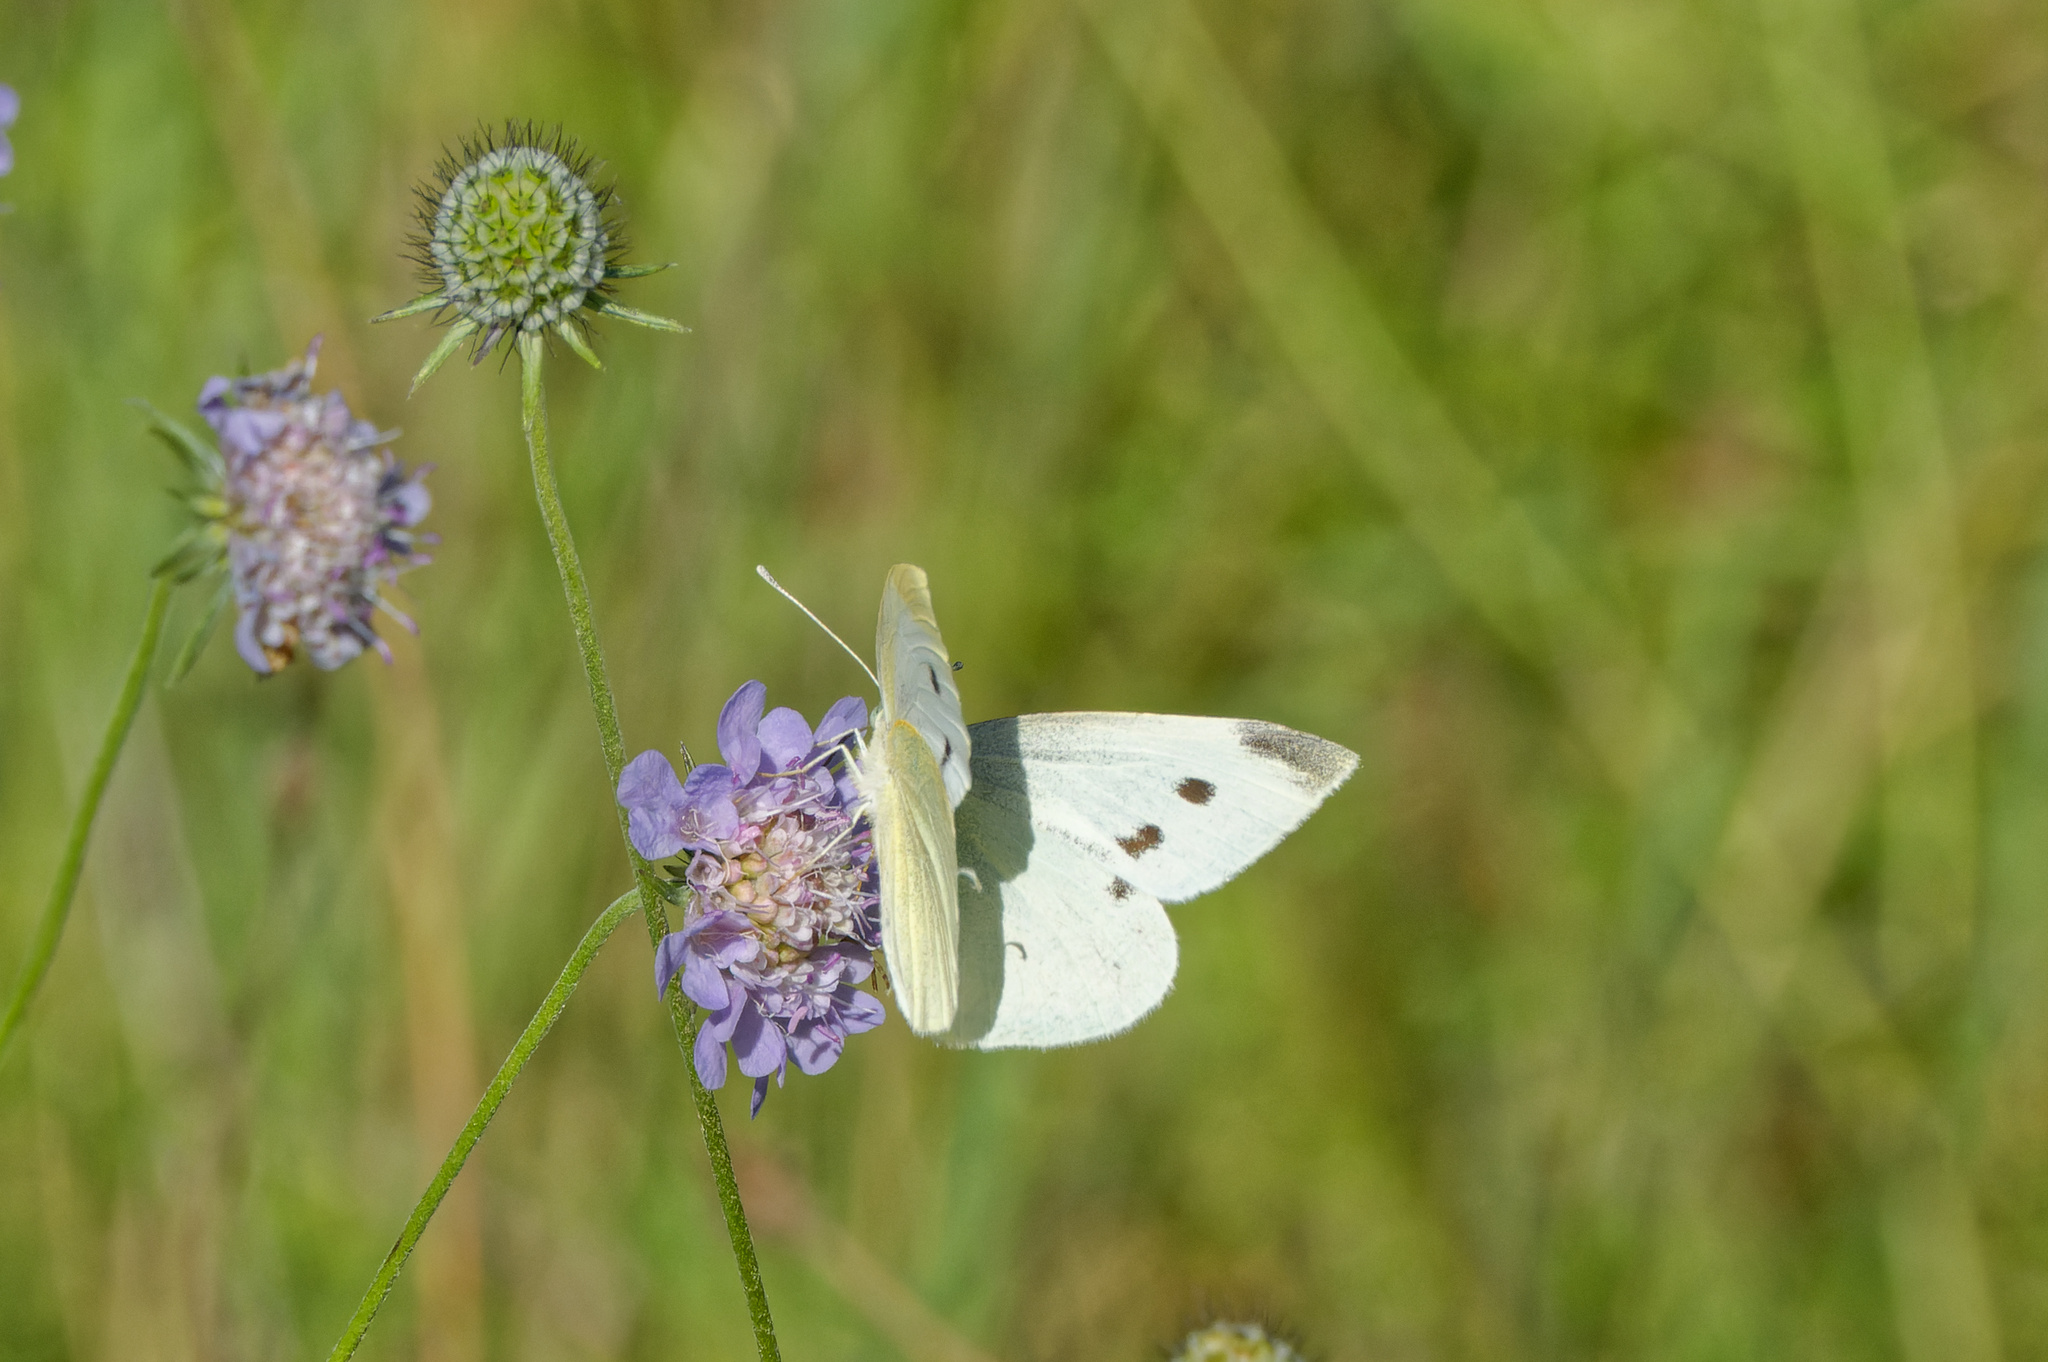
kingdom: Animalia
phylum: Arthropoda
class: Insecta
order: Lepidoptera
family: Pieridae
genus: Pieris
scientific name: Pieris rapae
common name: Small white
